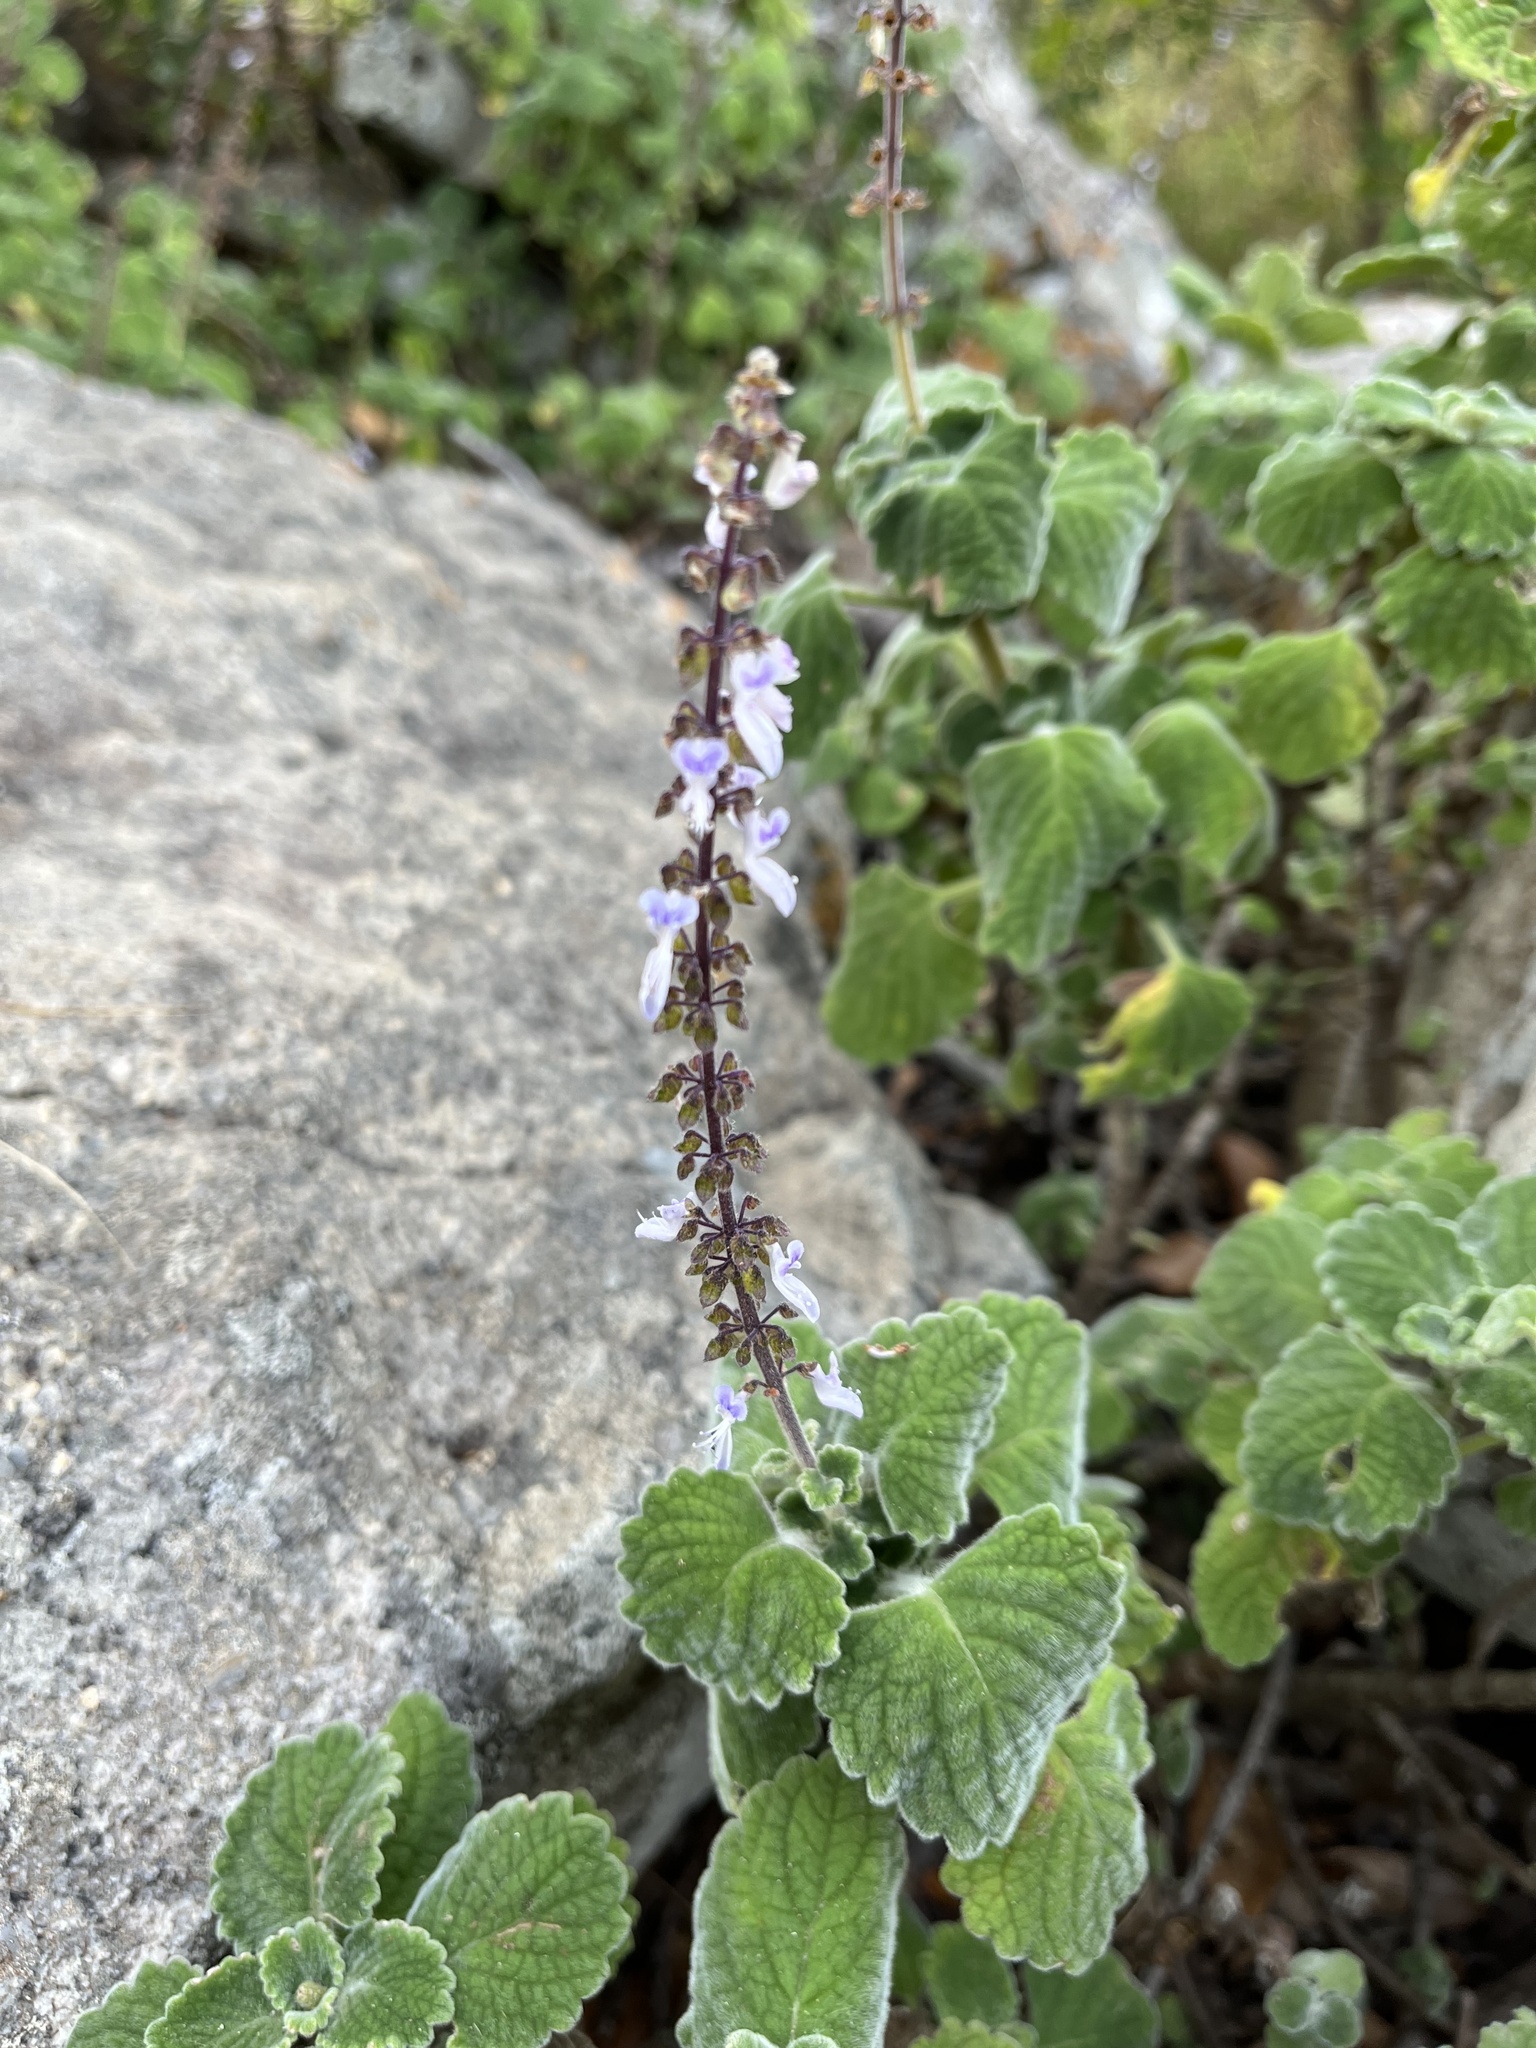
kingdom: Plantae
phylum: Tracheophyta
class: Magnoliopsida
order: Lamiales
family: Lamiaceae
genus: Coleus
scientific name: Coleus hadiensis
